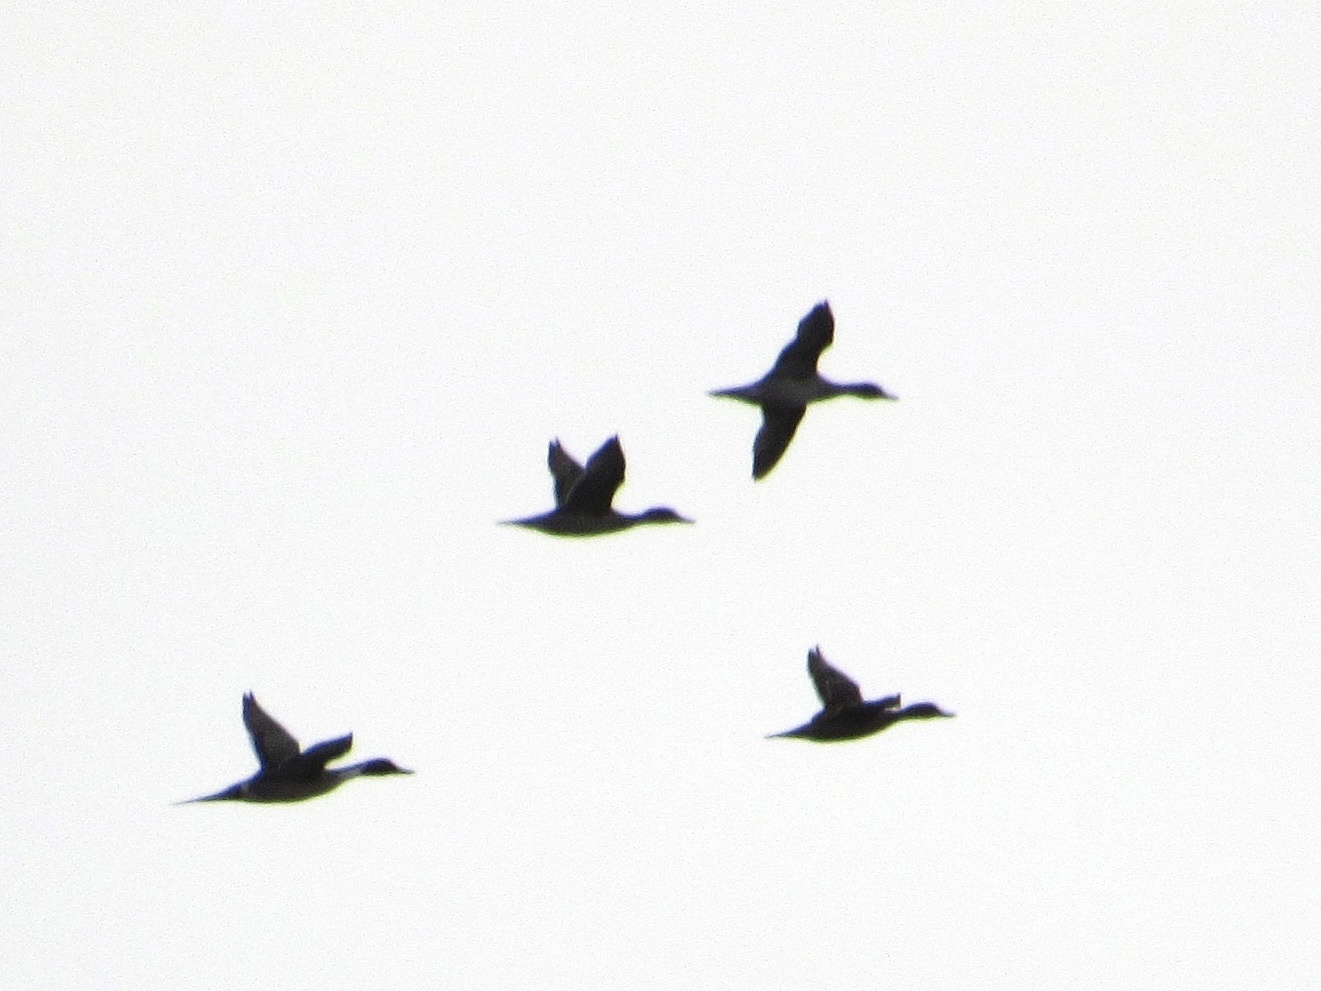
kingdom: Animalia
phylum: Chordata
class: Aves
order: Anseriformes
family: Anatidae
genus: Anas
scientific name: Anas acuta
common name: Northern pintail
